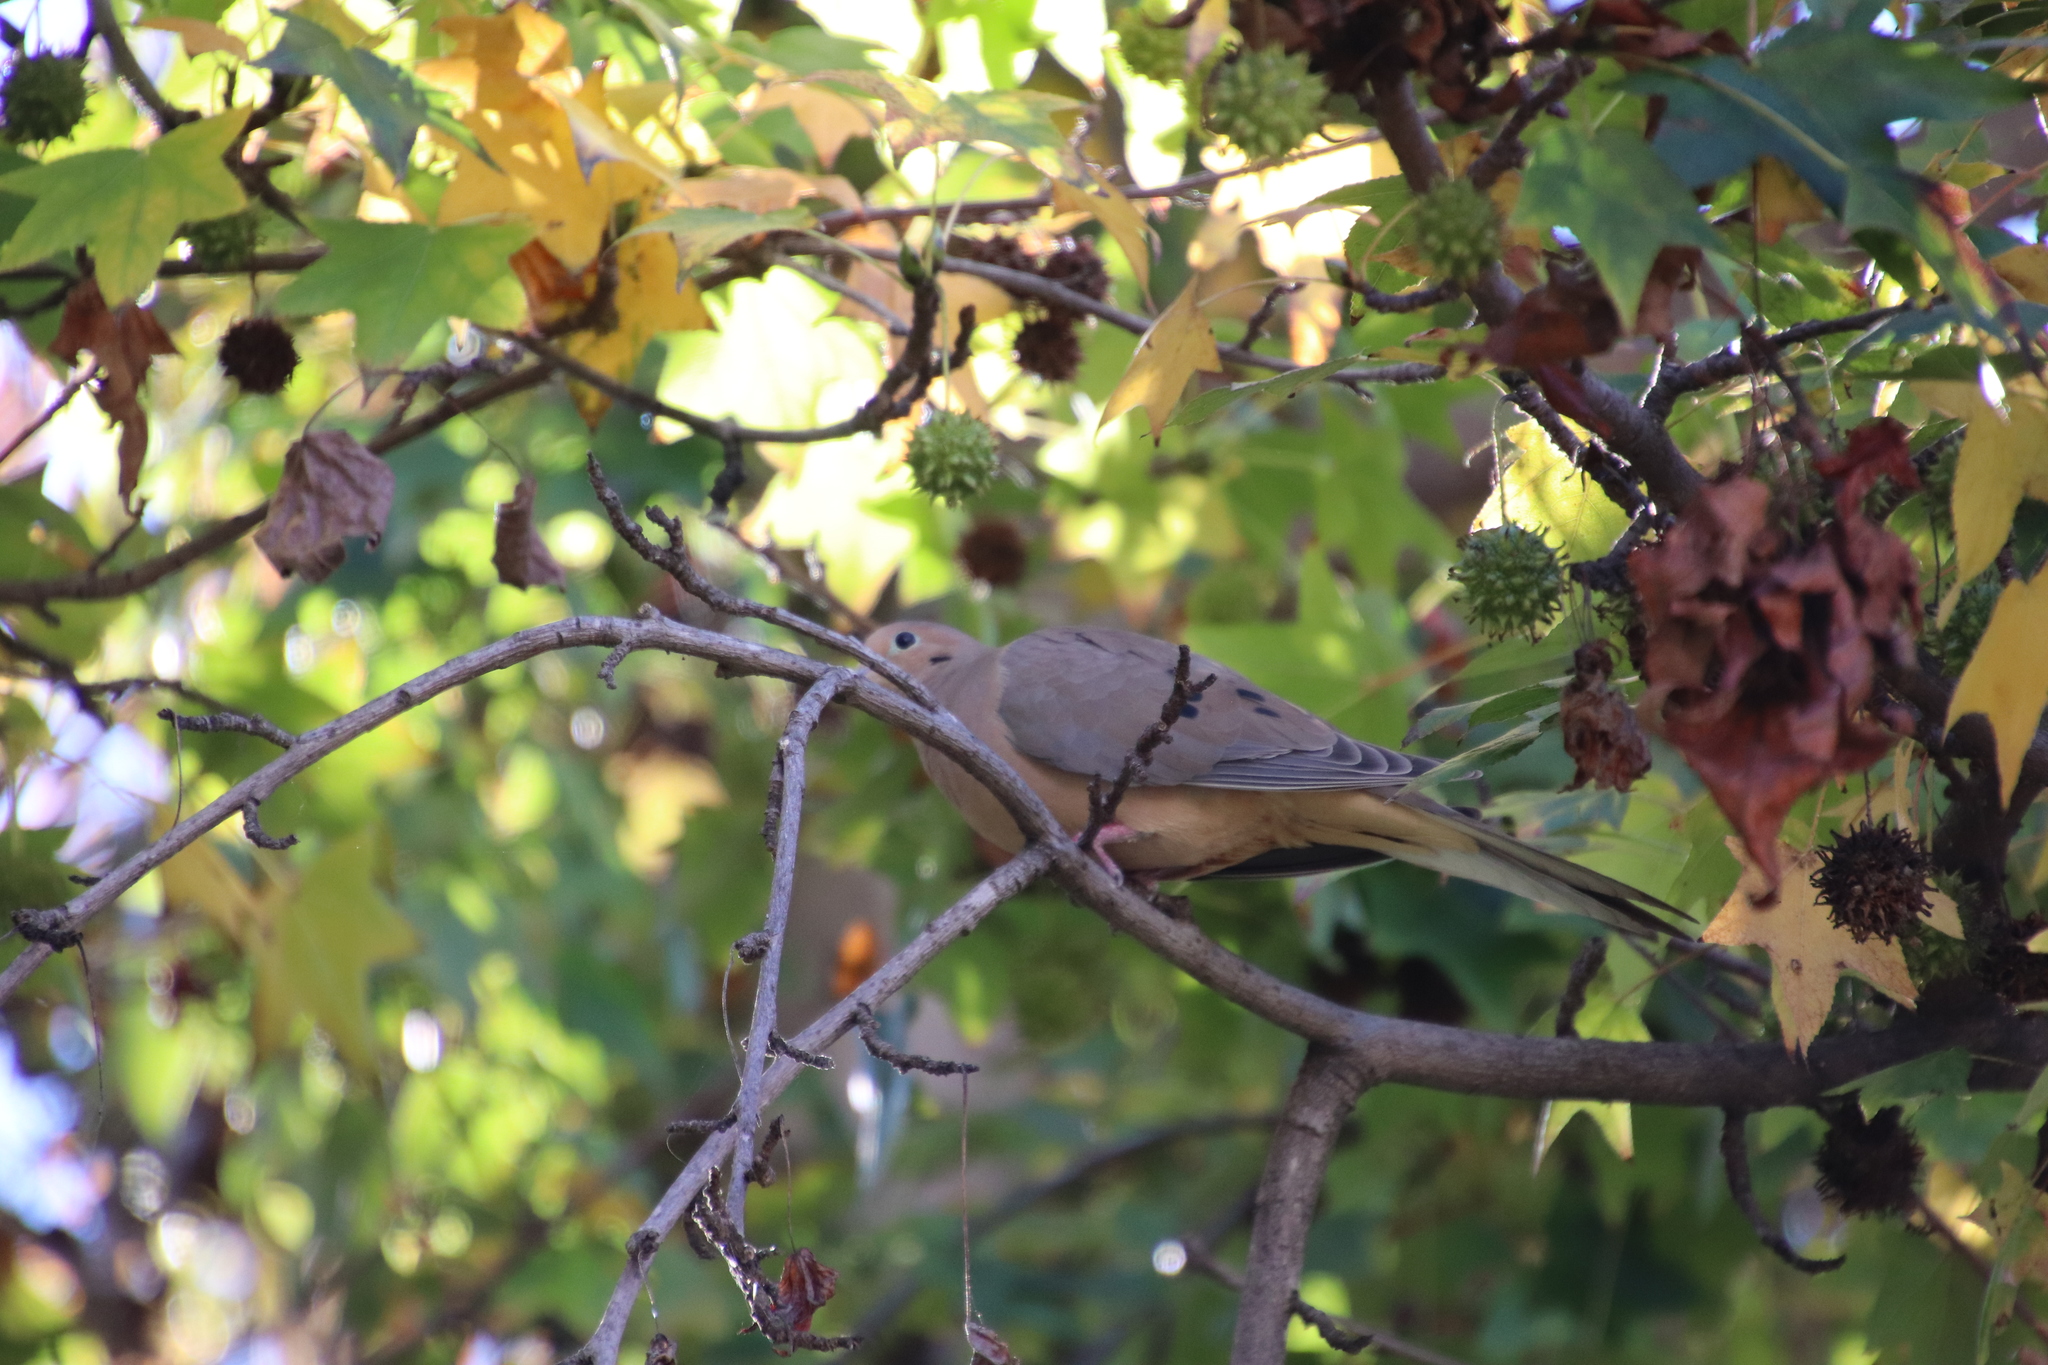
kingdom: Animalia
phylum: Chordata
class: Aves
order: Columbiformes
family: Columbidae
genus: Zenaida
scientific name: Zenaida macroura
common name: Mourning dove
